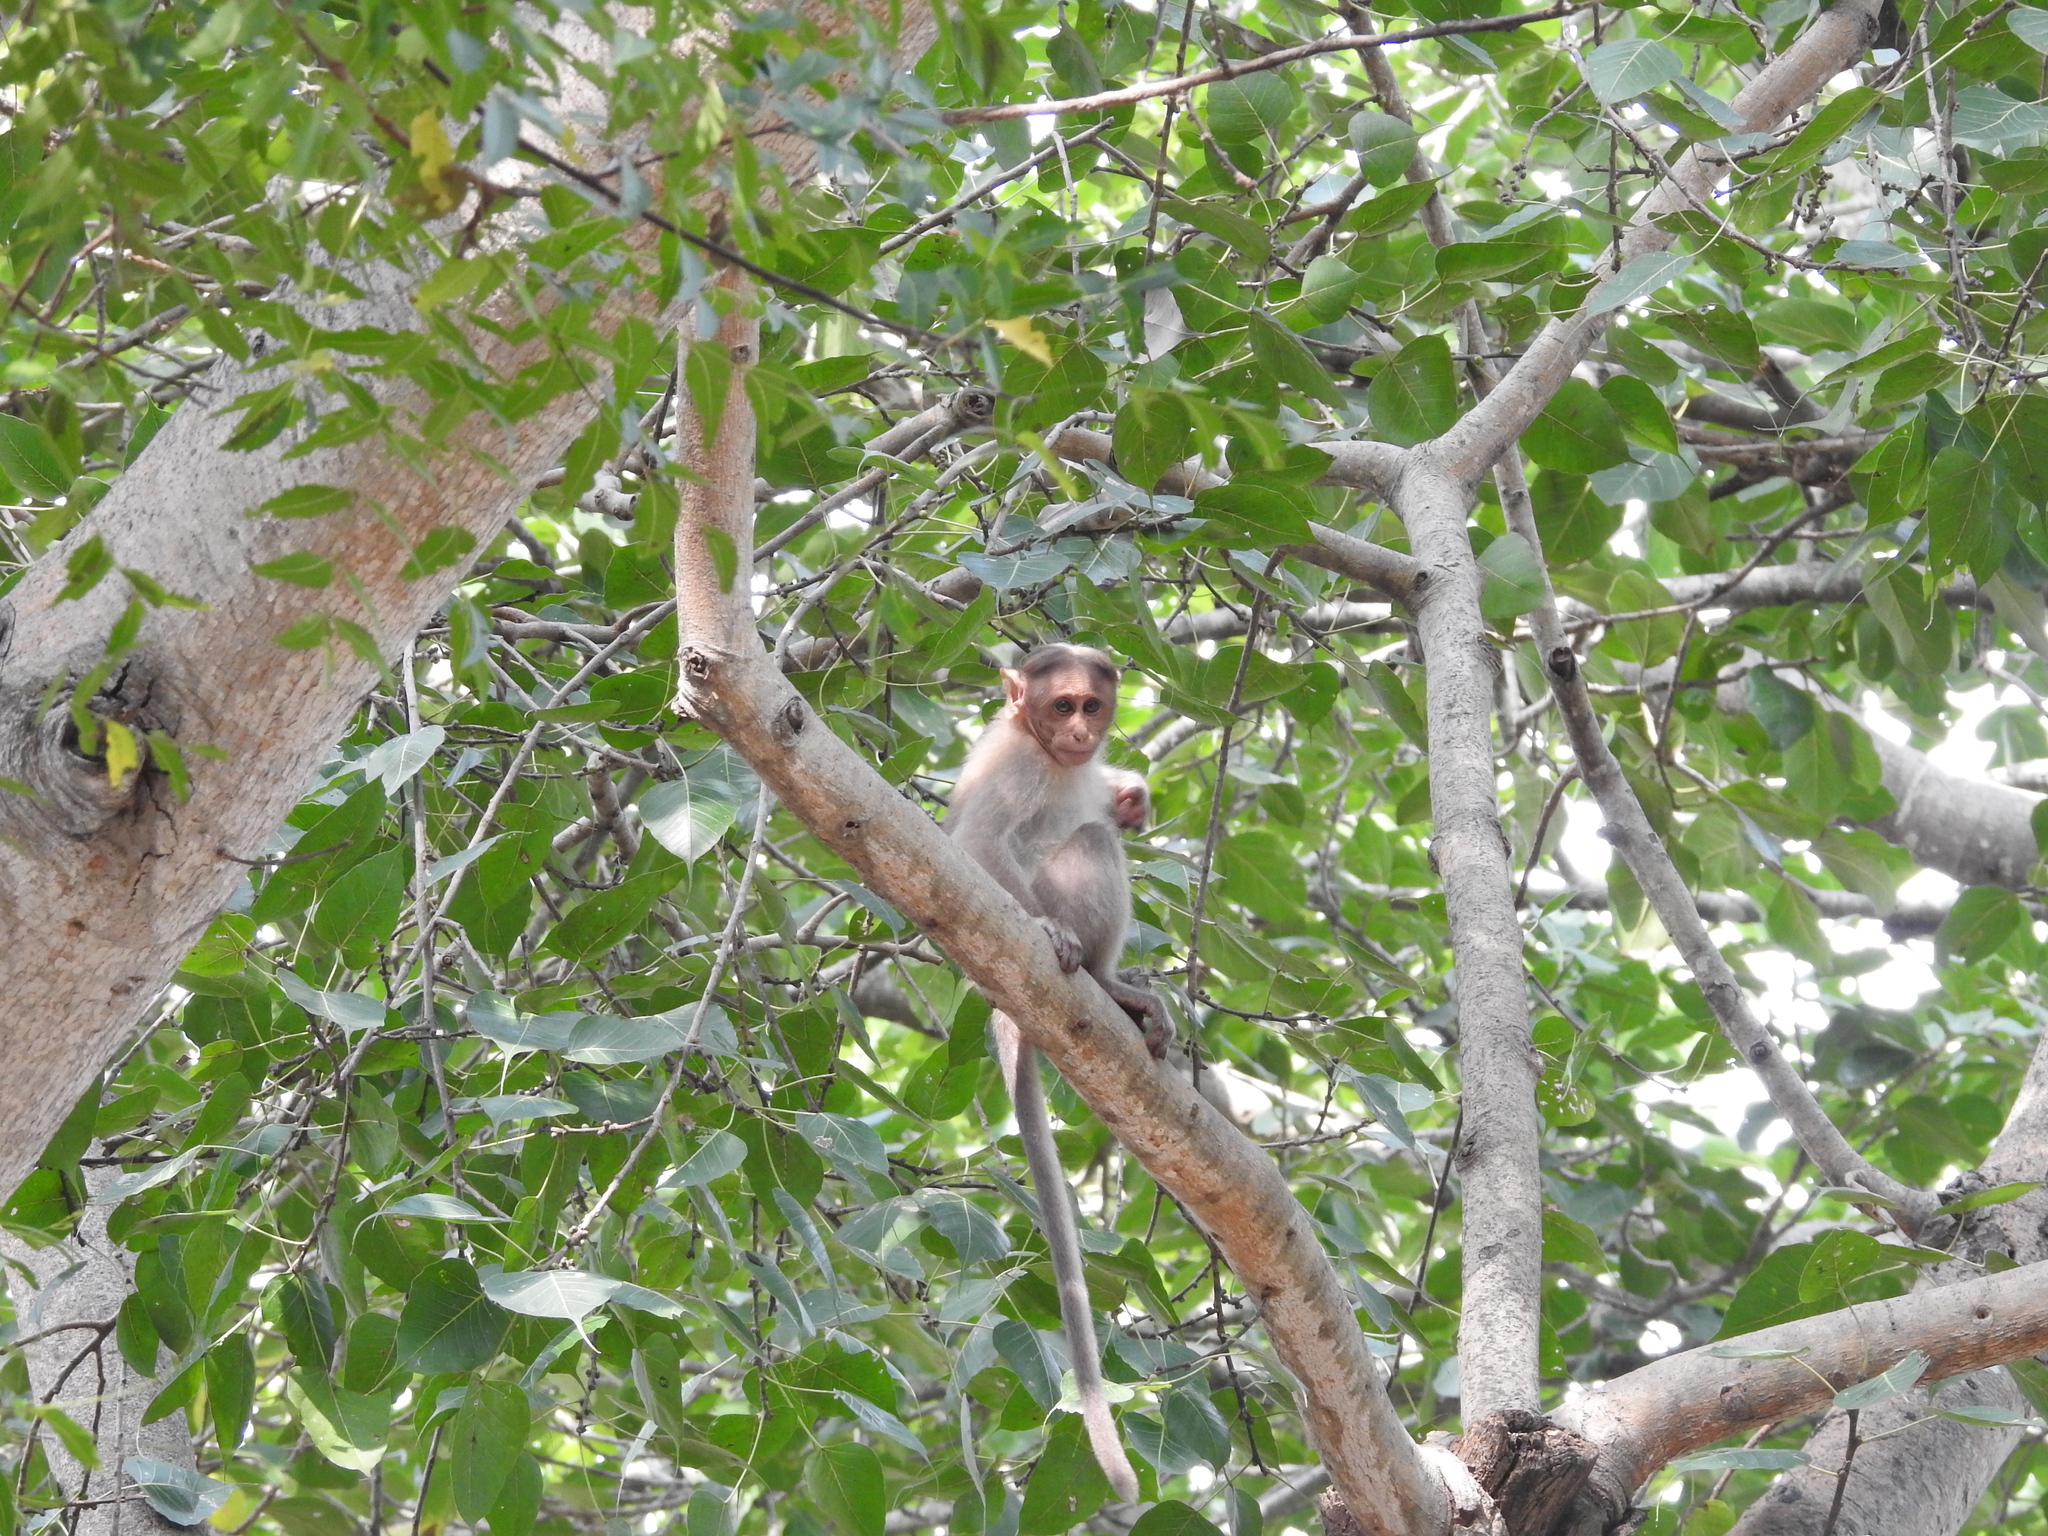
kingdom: Animalia
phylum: Chordata
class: Mammalia
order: Primates
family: Cercopithecidae
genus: Macaca
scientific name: Macaca radiata
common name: Bonnet macaque
